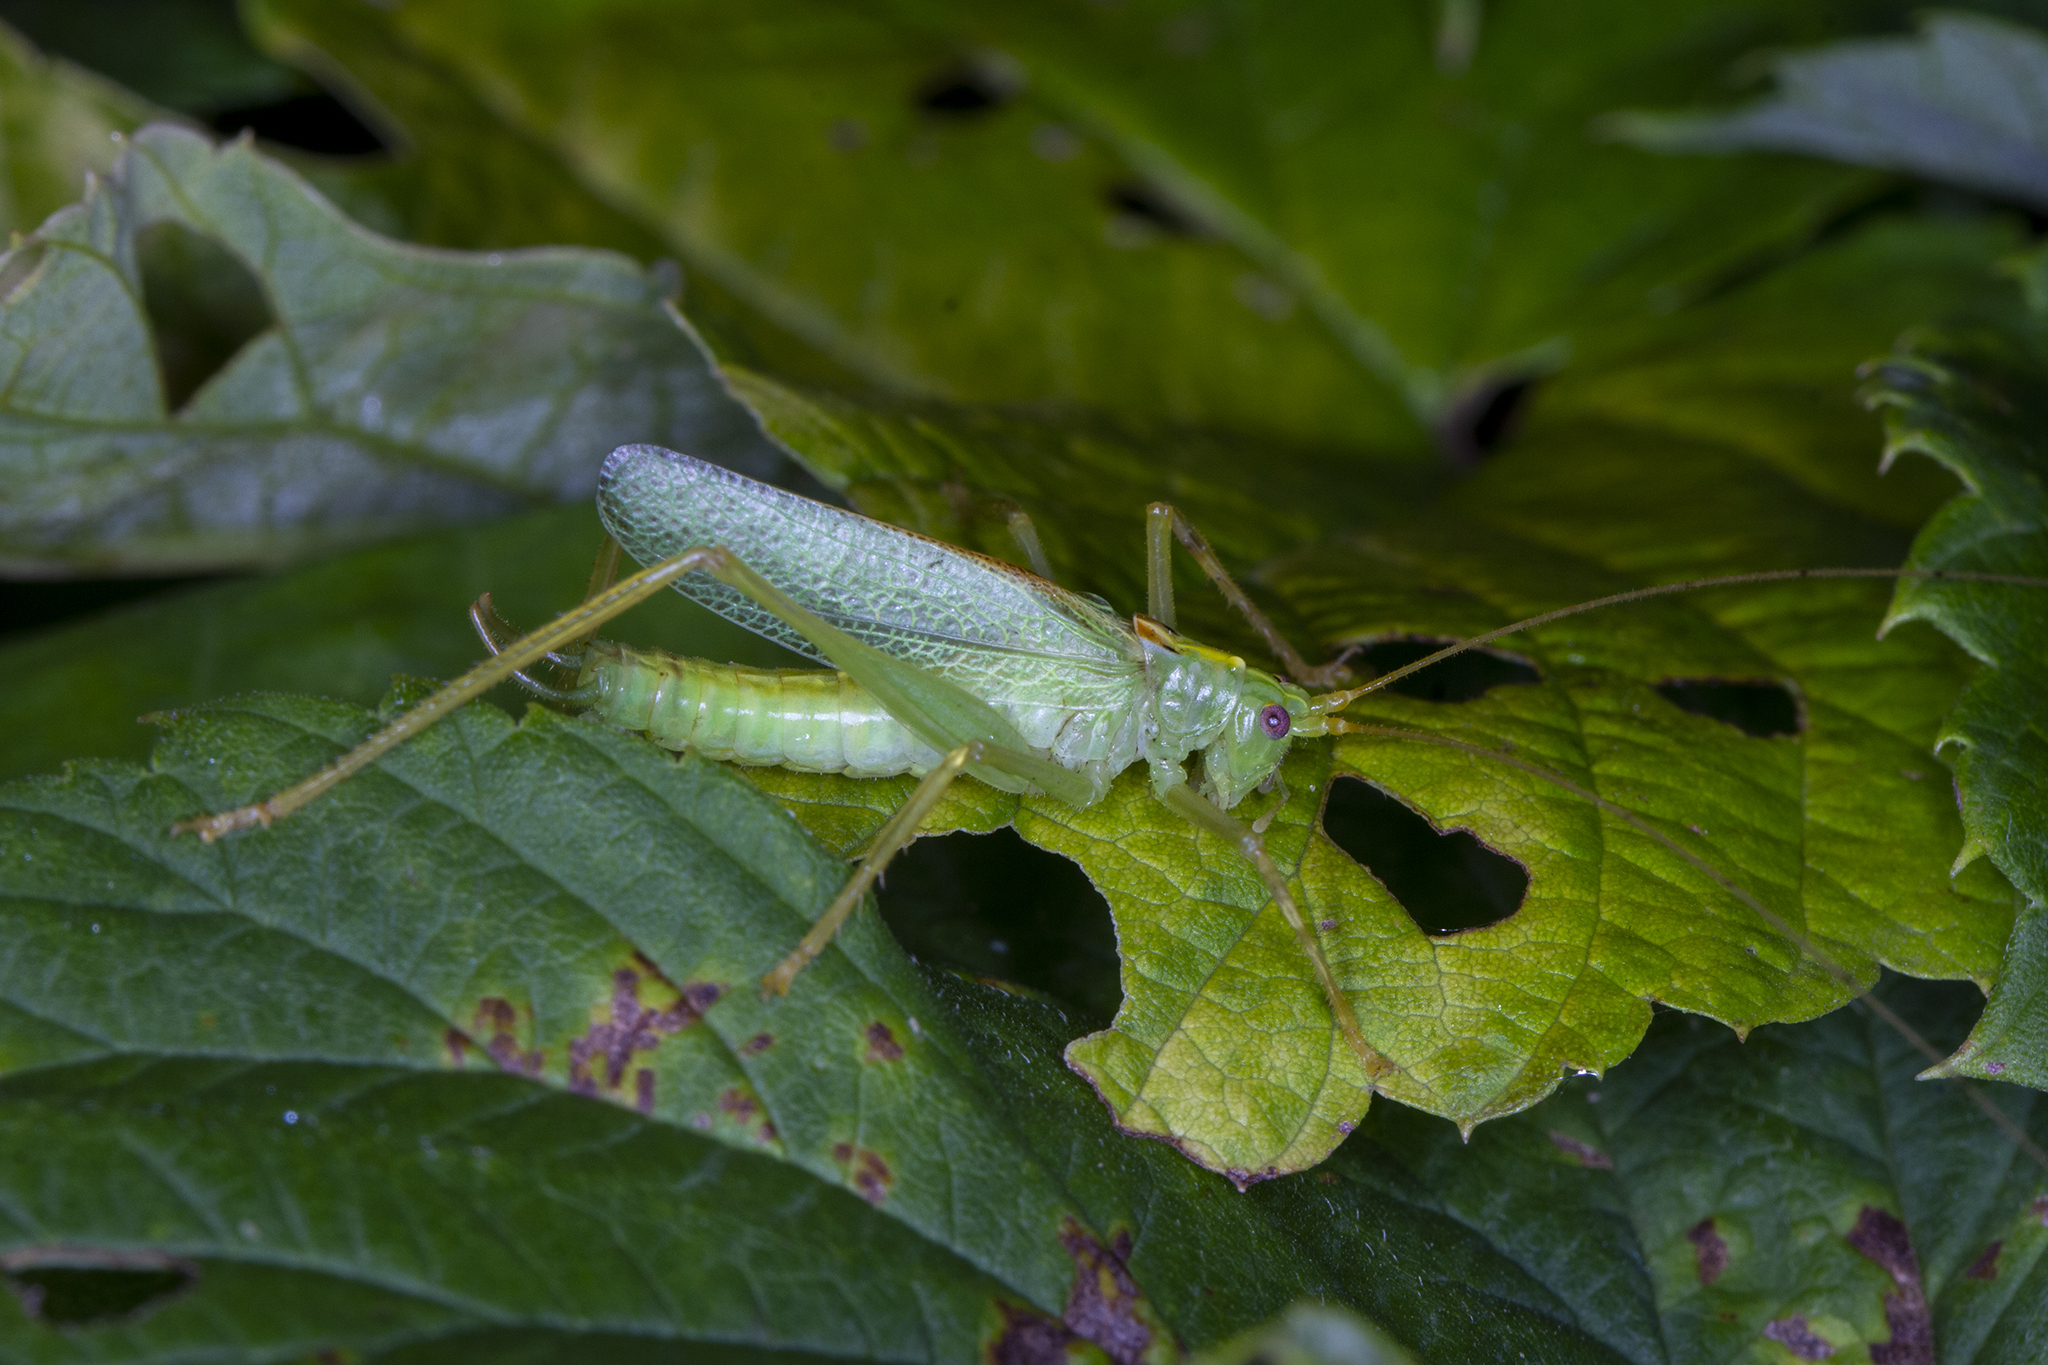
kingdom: Animalia
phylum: Arthropoda
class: Insecta
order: Orthoptera
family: Tettigoniidae
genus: Meconema
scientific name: Meconema thalassinum
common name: Oak bush-cricket
